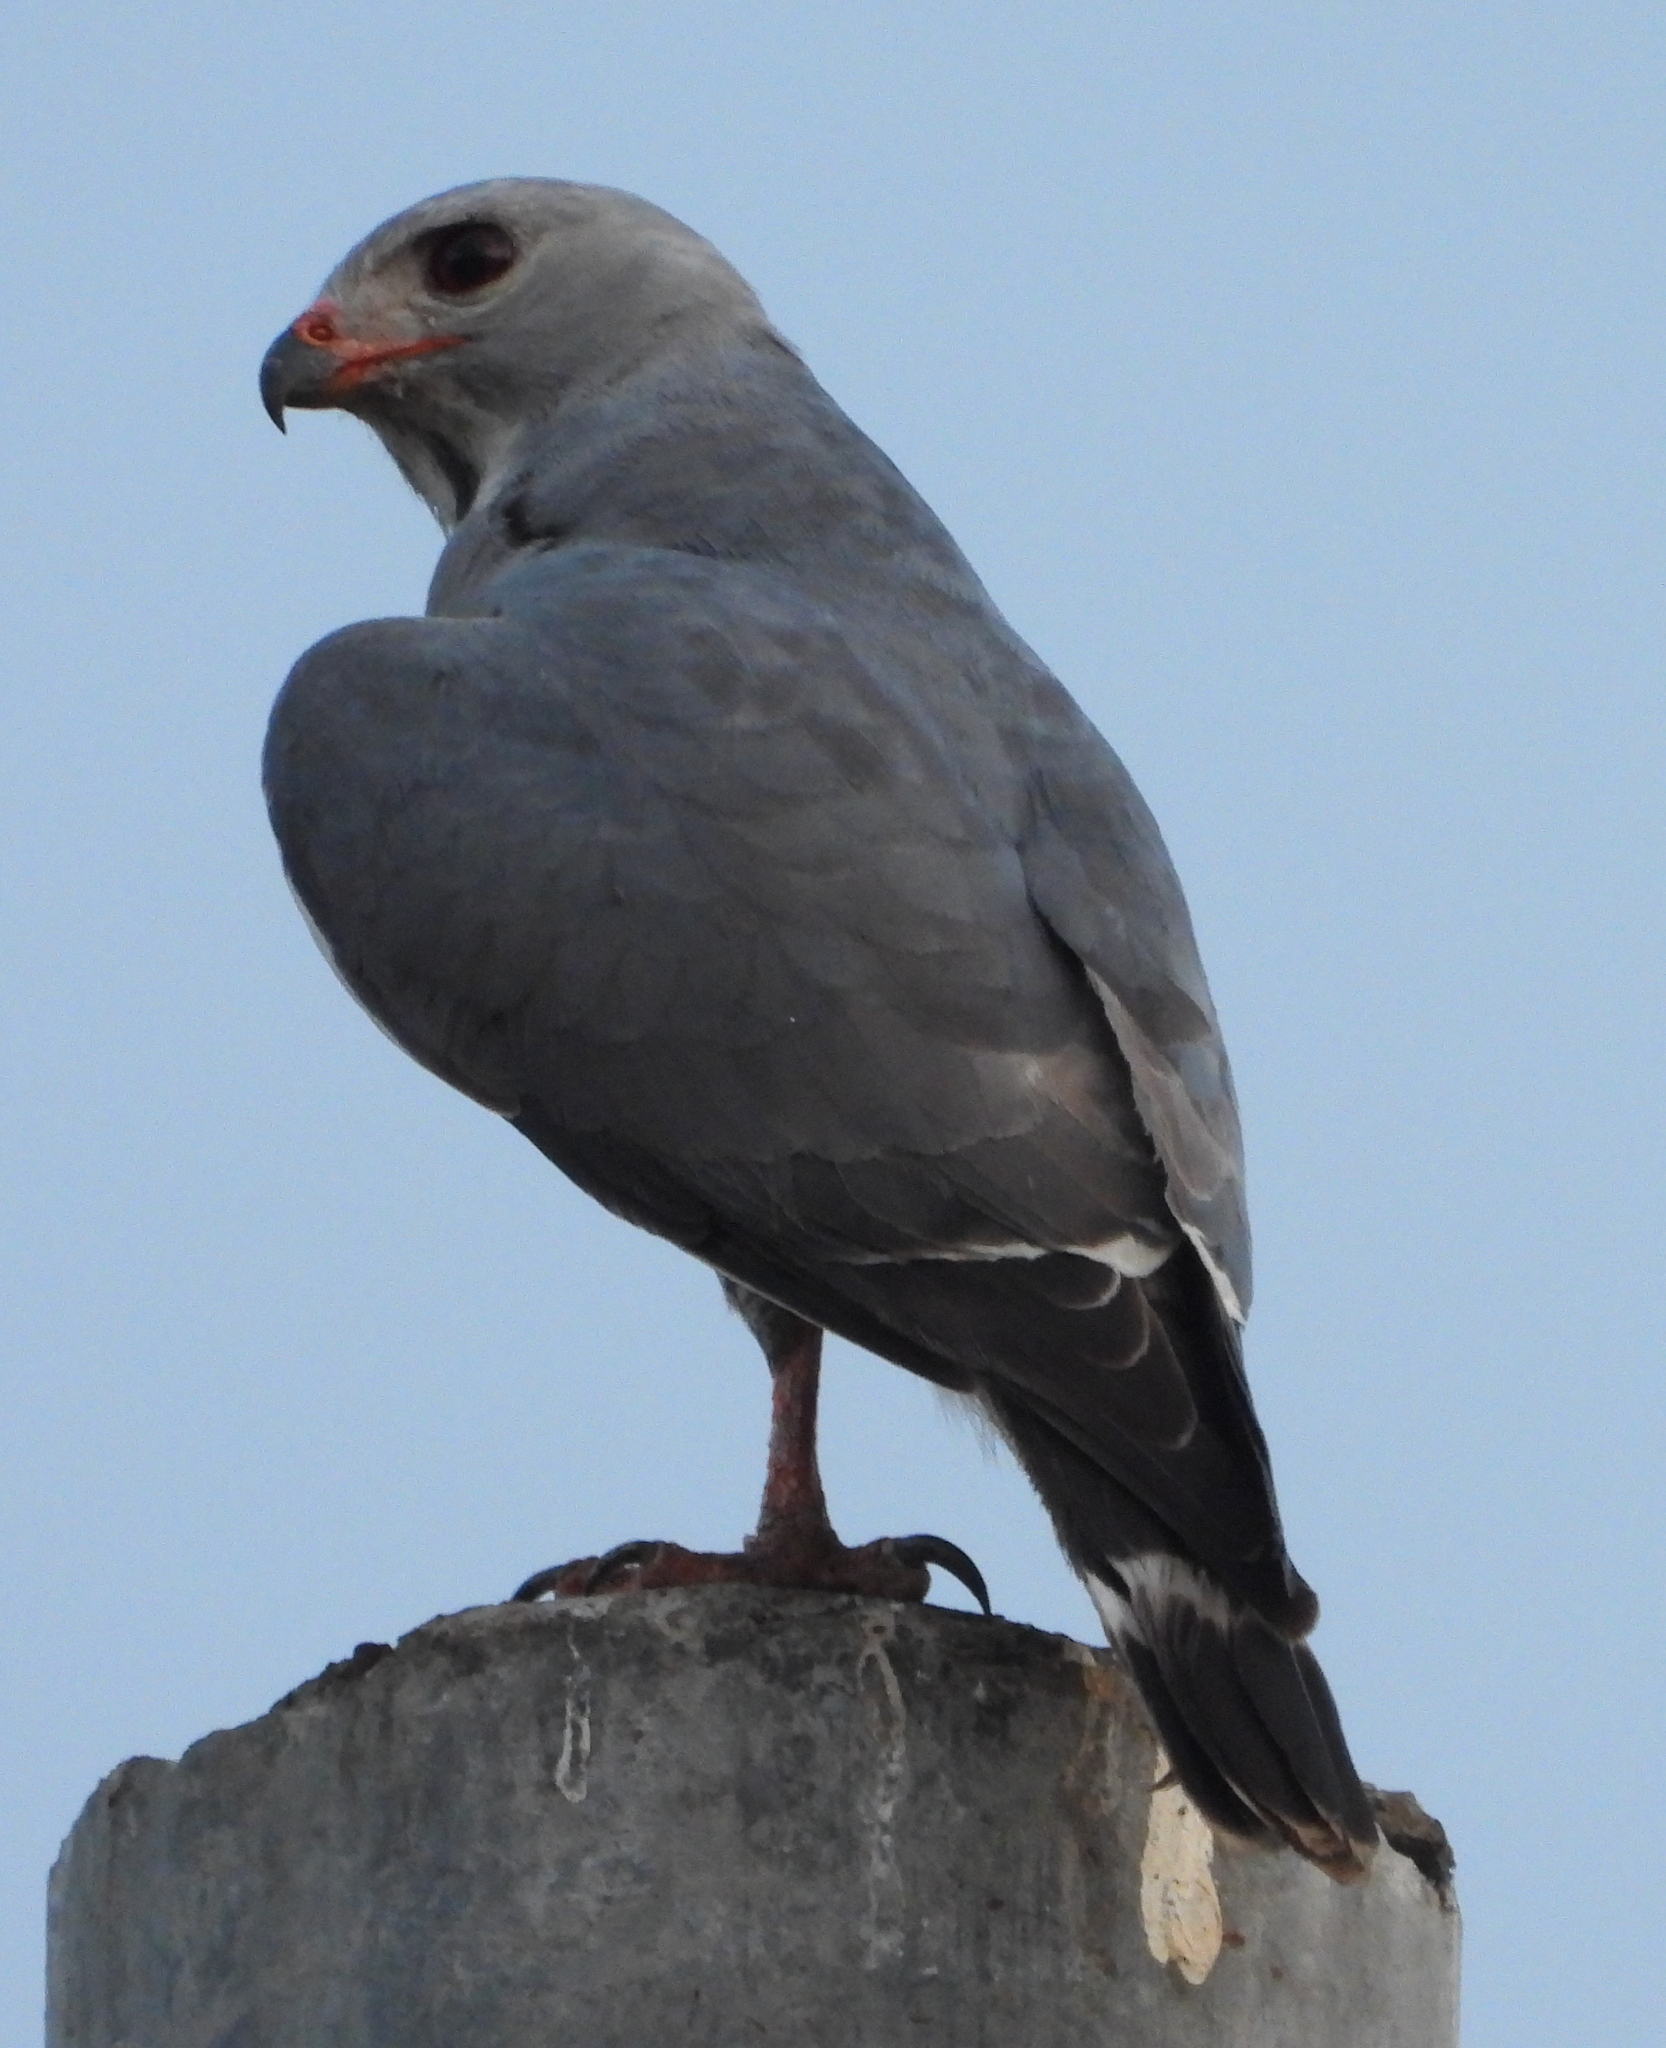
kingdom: Animalia
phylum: Chordata
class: Aves
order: Accipitriformes
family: Accipitridae
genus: Kaupifalco
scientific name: Kaupifalco monogrammicus
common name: Lizard buzzard
